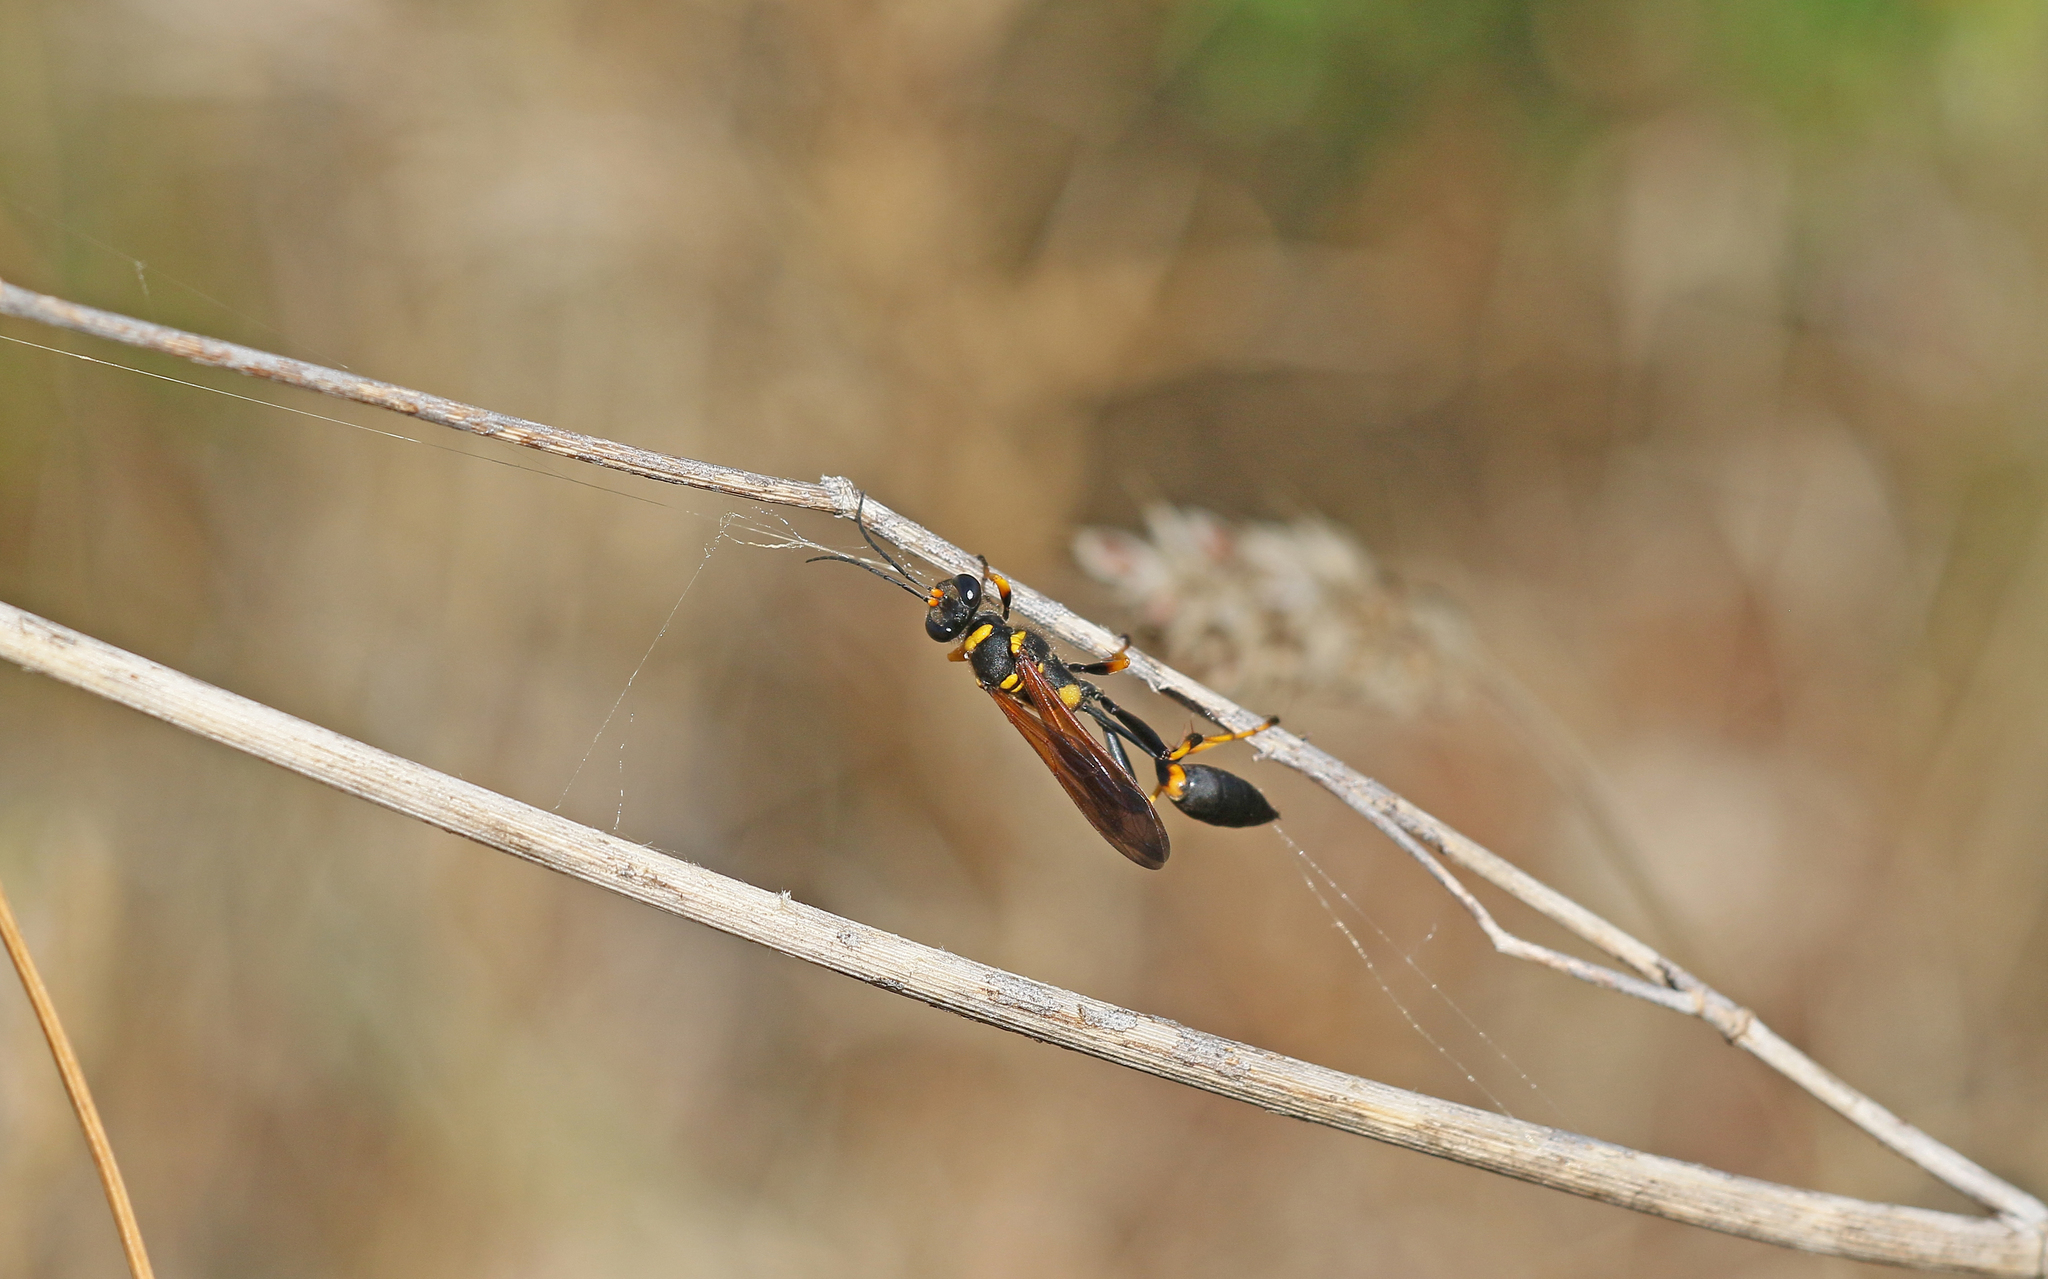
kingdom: Animalia
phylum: Arthropoda
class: Insecta
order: Hymenoptera
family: Sphecidae
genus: Sceliphron
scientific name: Sceliphron caementarium
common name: Mud dauber
